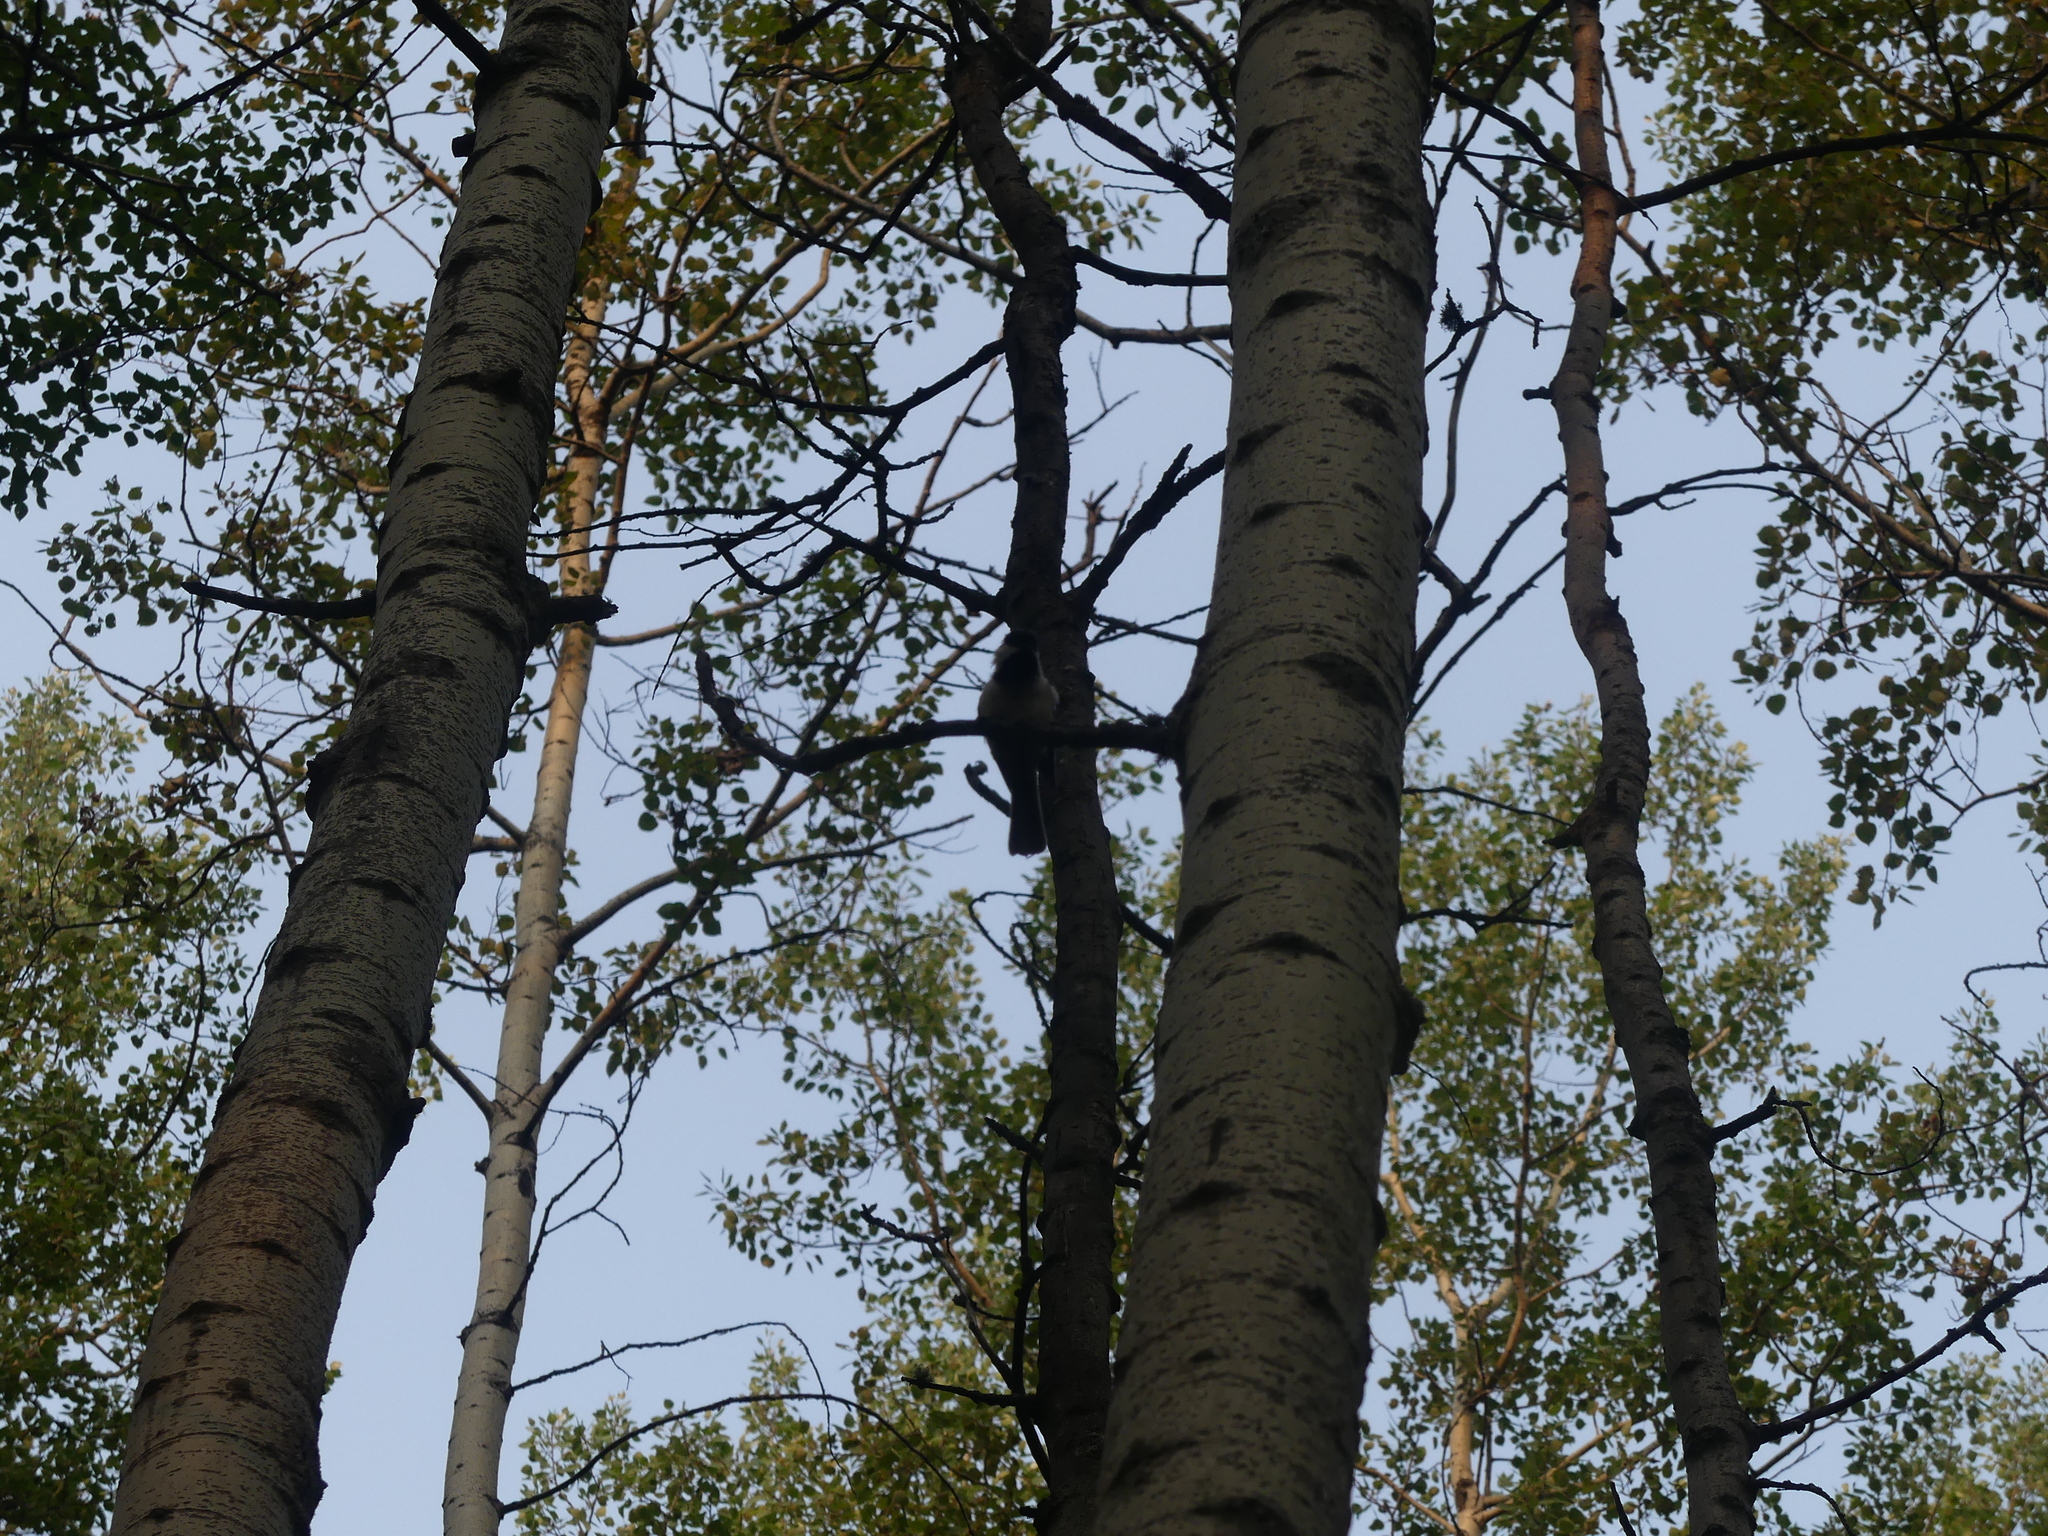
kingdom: Animalia
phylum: Chordata
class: Aves
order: Passeriformes
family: Paridae
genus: Poecile
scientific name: Poecile atricapillus
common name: Black-capped chickadee
